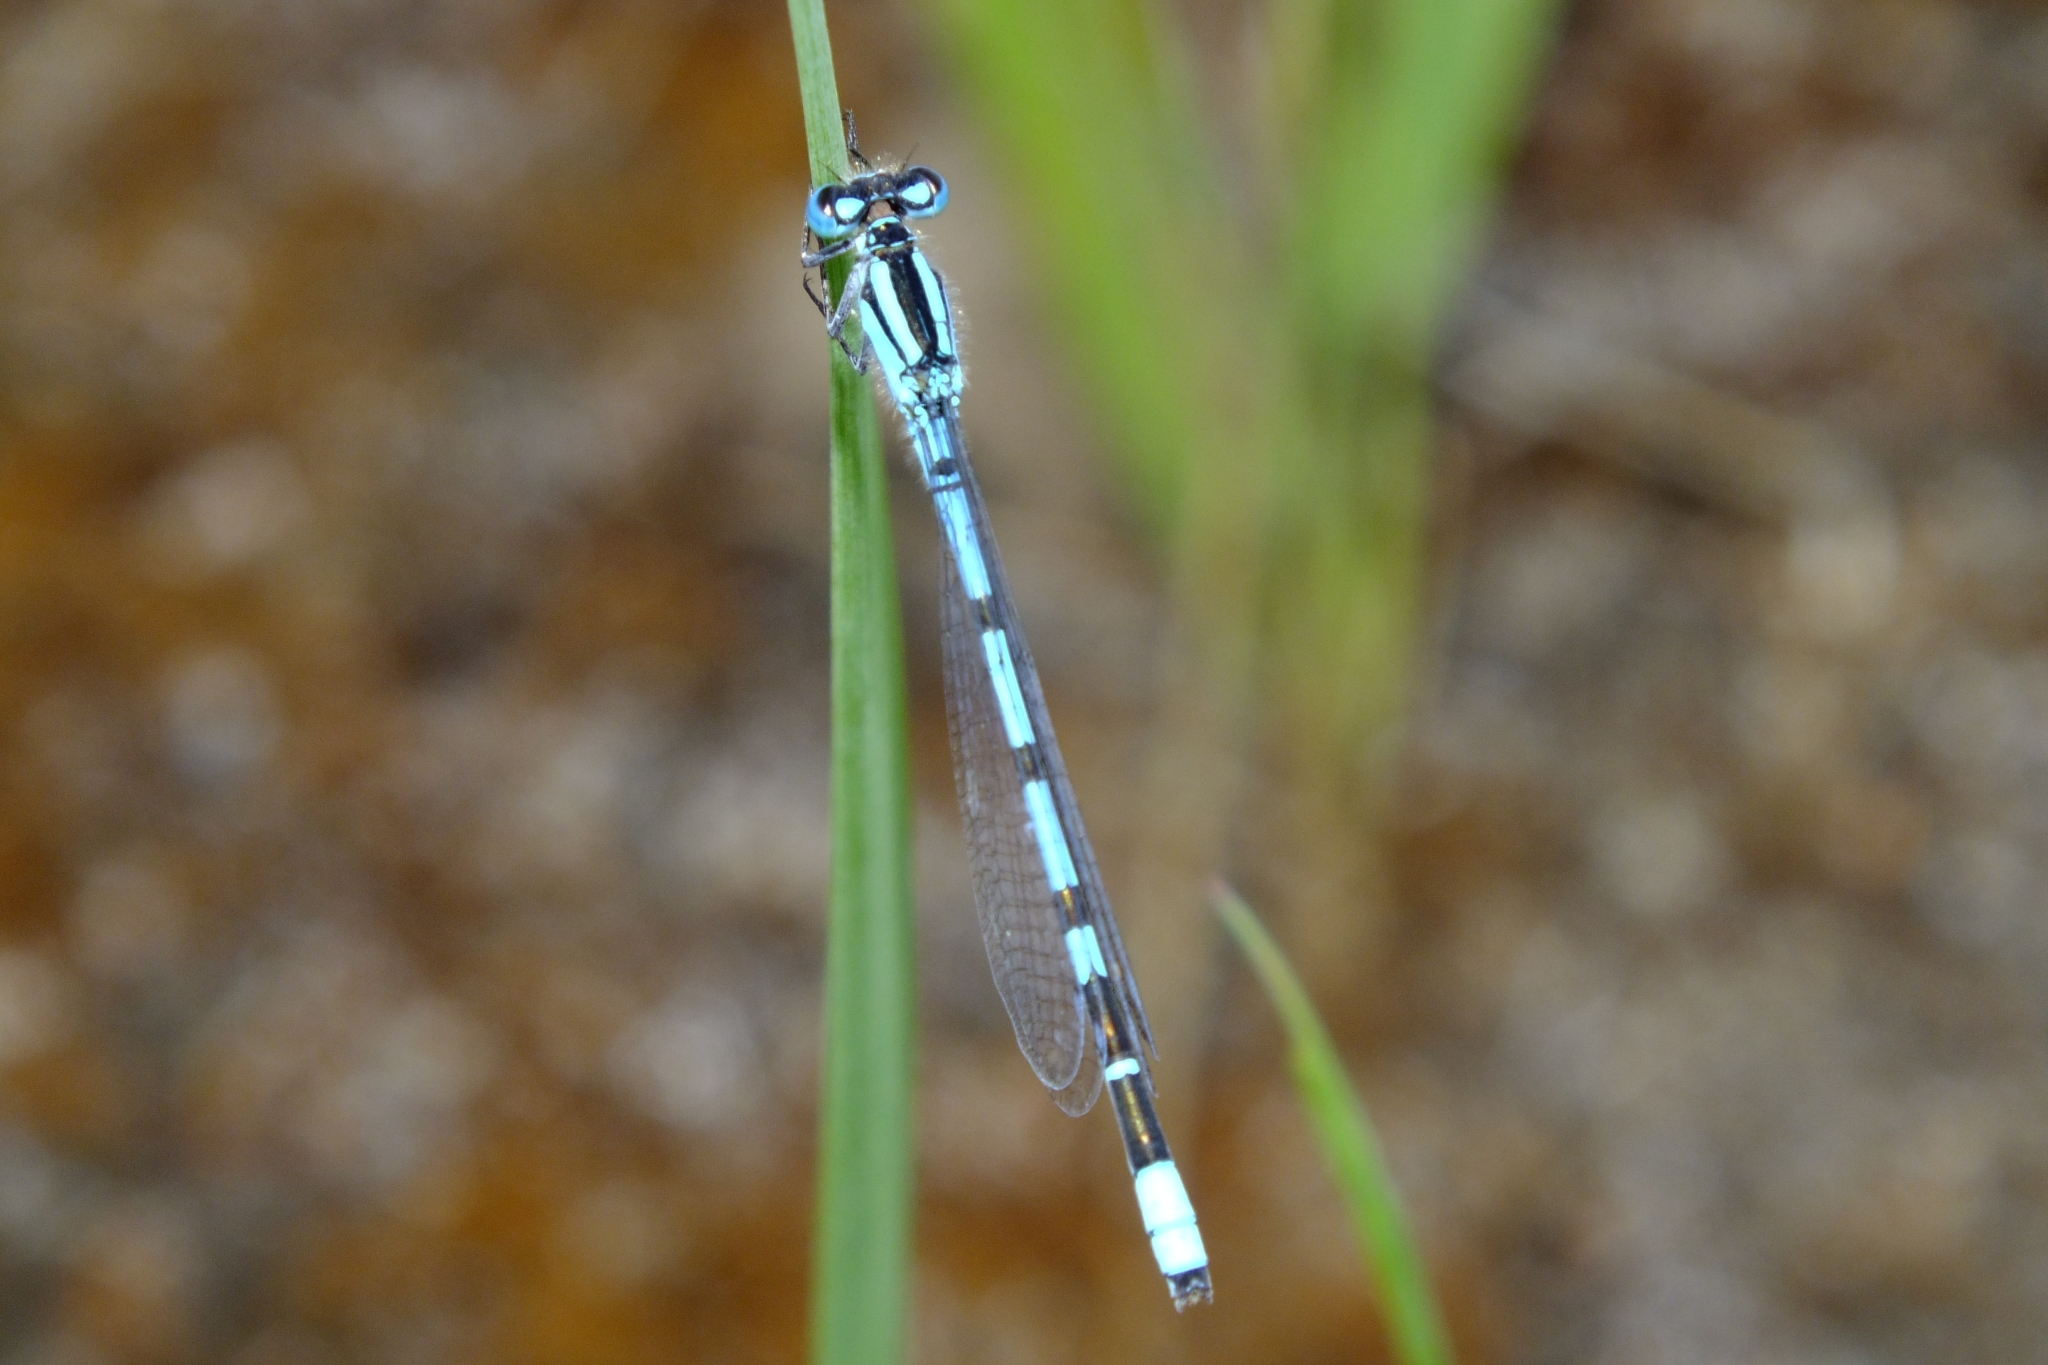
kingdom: Animalia
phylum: Arthropoda
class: Insecta
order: Odonata
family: Coenagrionidae
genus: Enallagma
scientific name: Enallagma cyathigerum
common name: Common blue damselfly
